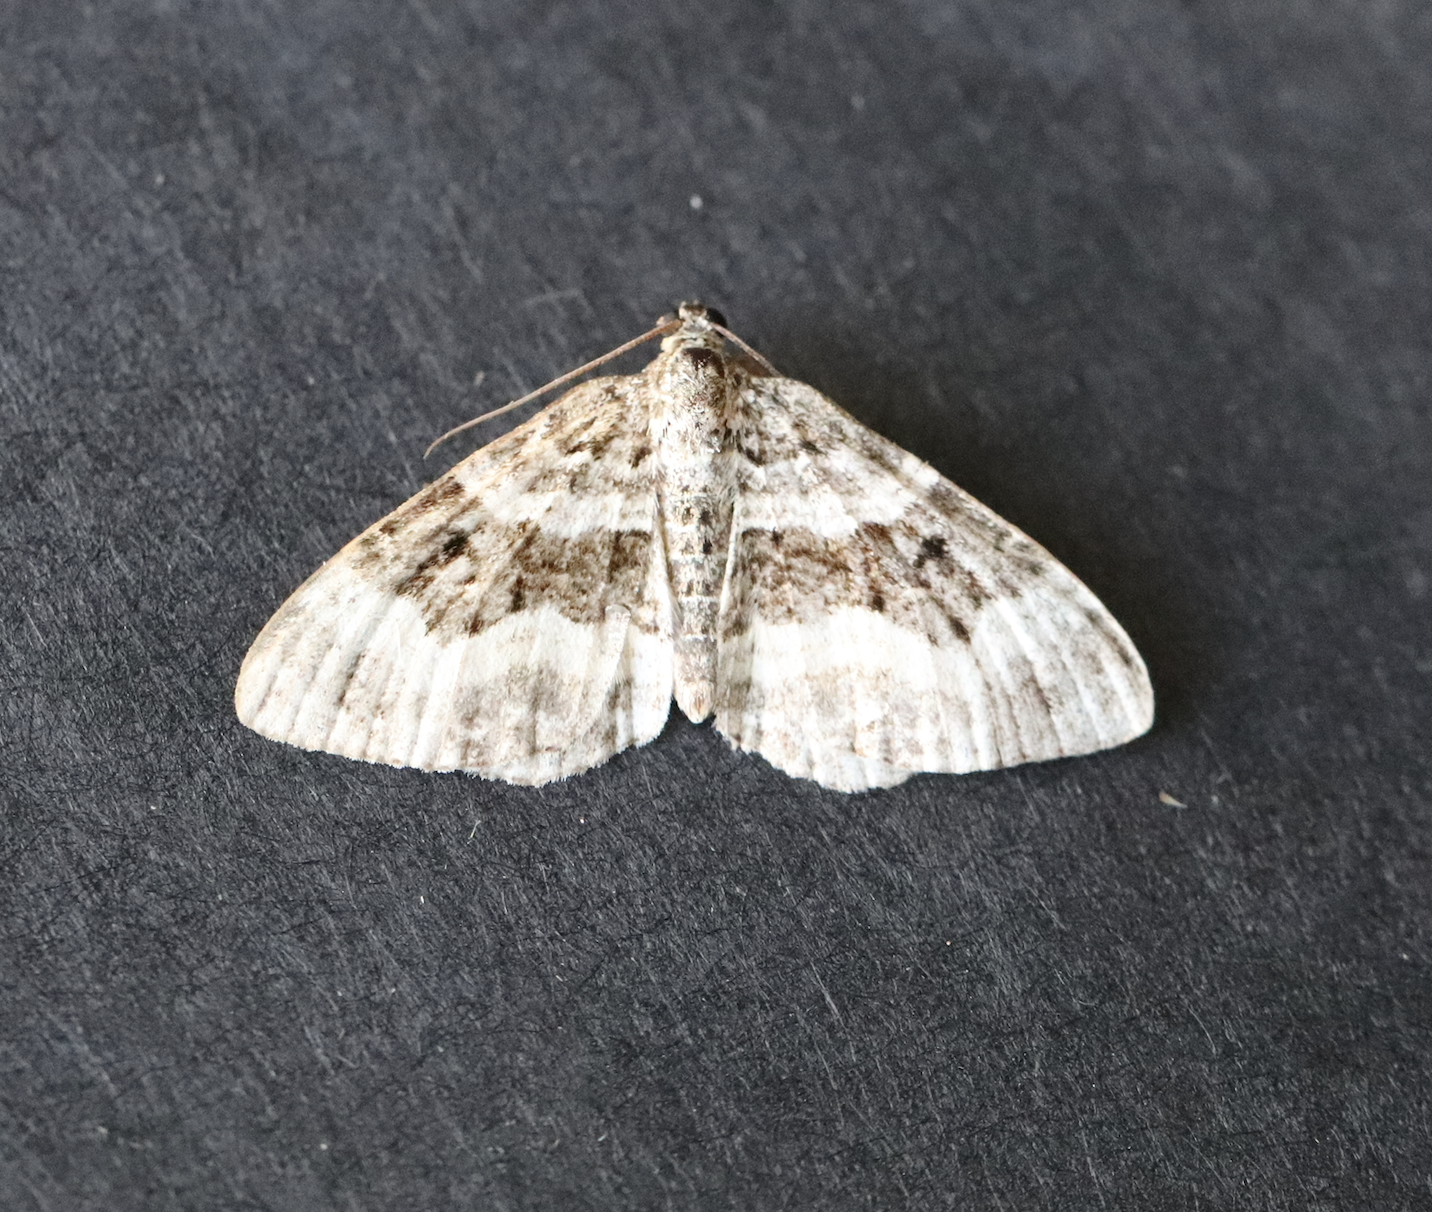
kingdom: Animalia
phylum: Arthropoda
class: Insecta
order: Lepidoptera
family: Geometridae
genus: Epirrhoe
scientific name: Epirrhoe alternata
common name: Common carpet
